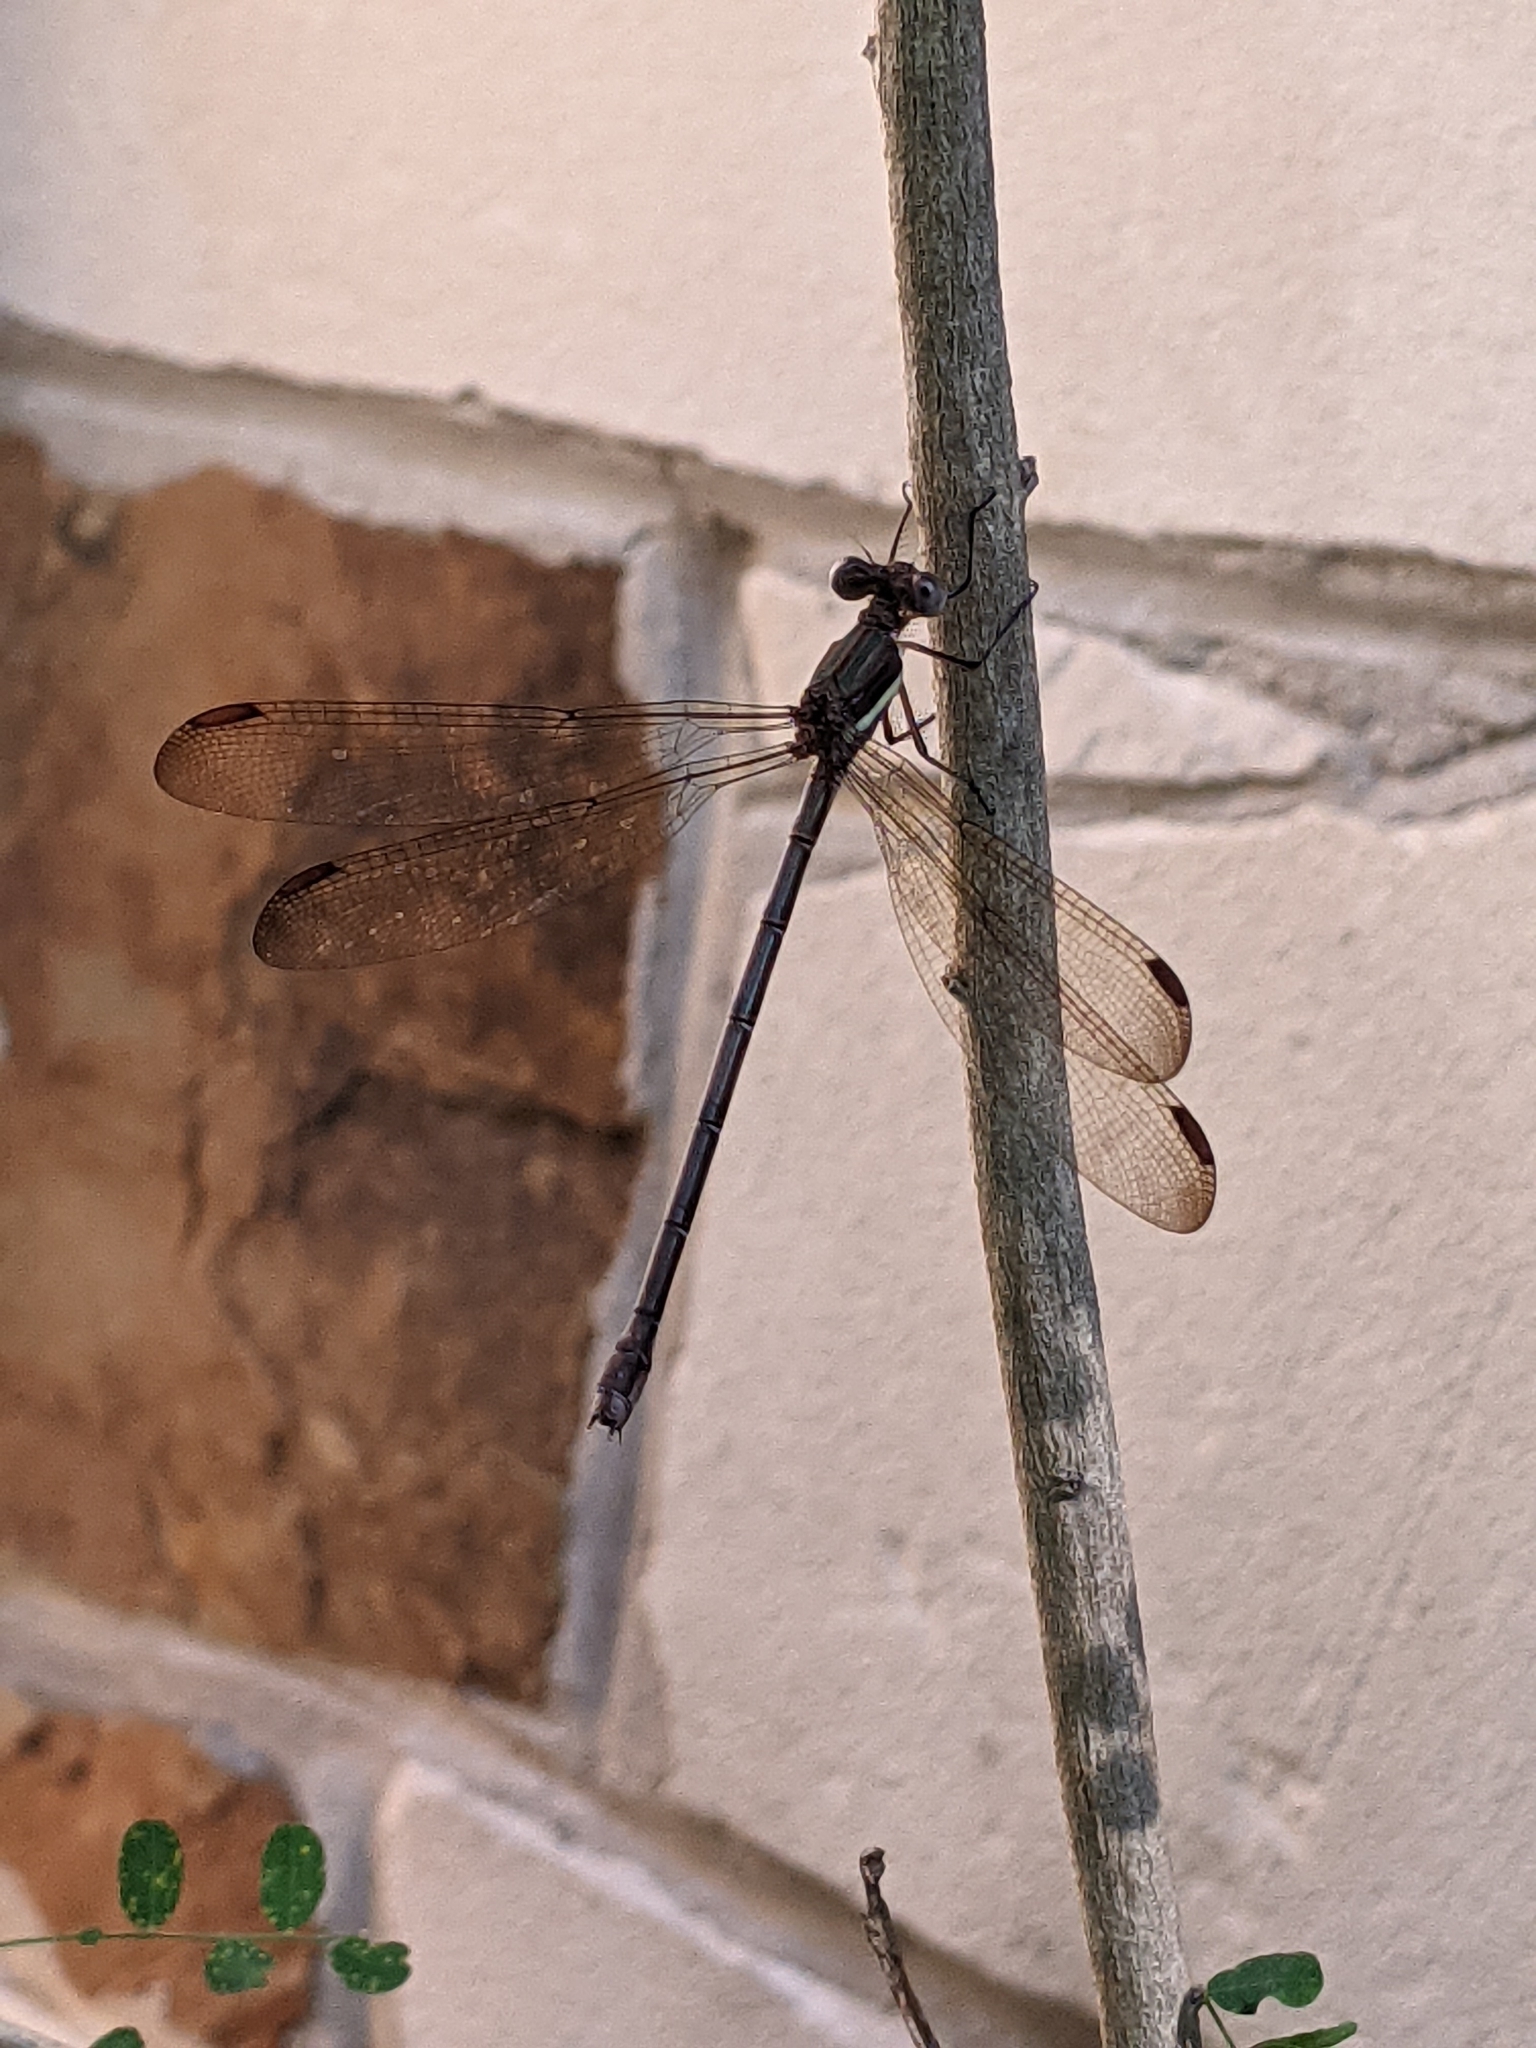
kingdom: Animalia
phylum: Arthropoda
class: Insecta
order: Odonata
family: Lestidae
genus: Archilestes
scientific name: Archilestes grandis
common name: Great spreadwing
